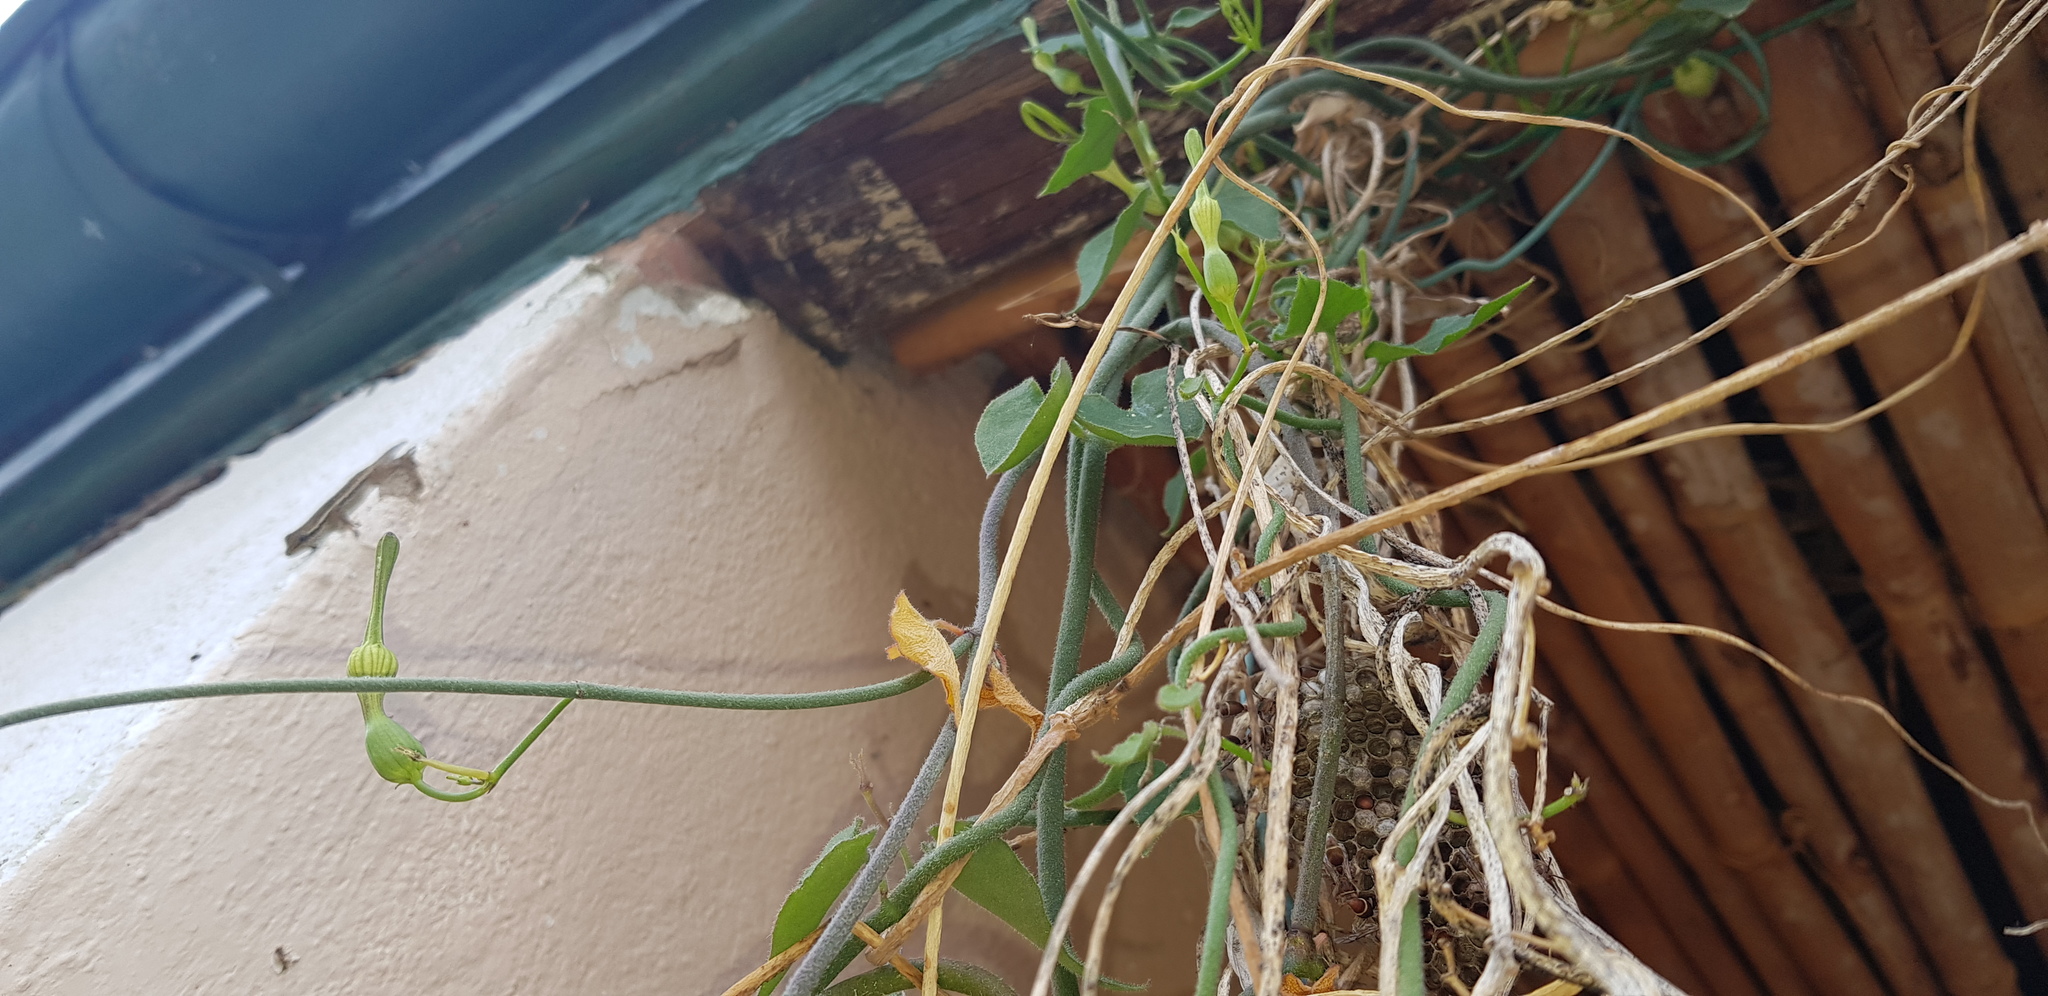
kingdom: Plantae
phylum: Tracheophyta
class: Magnoliopsida
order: Gentianales
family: Apocynaceae
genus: Ceropegia
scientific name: Ceropegia cycniflora
